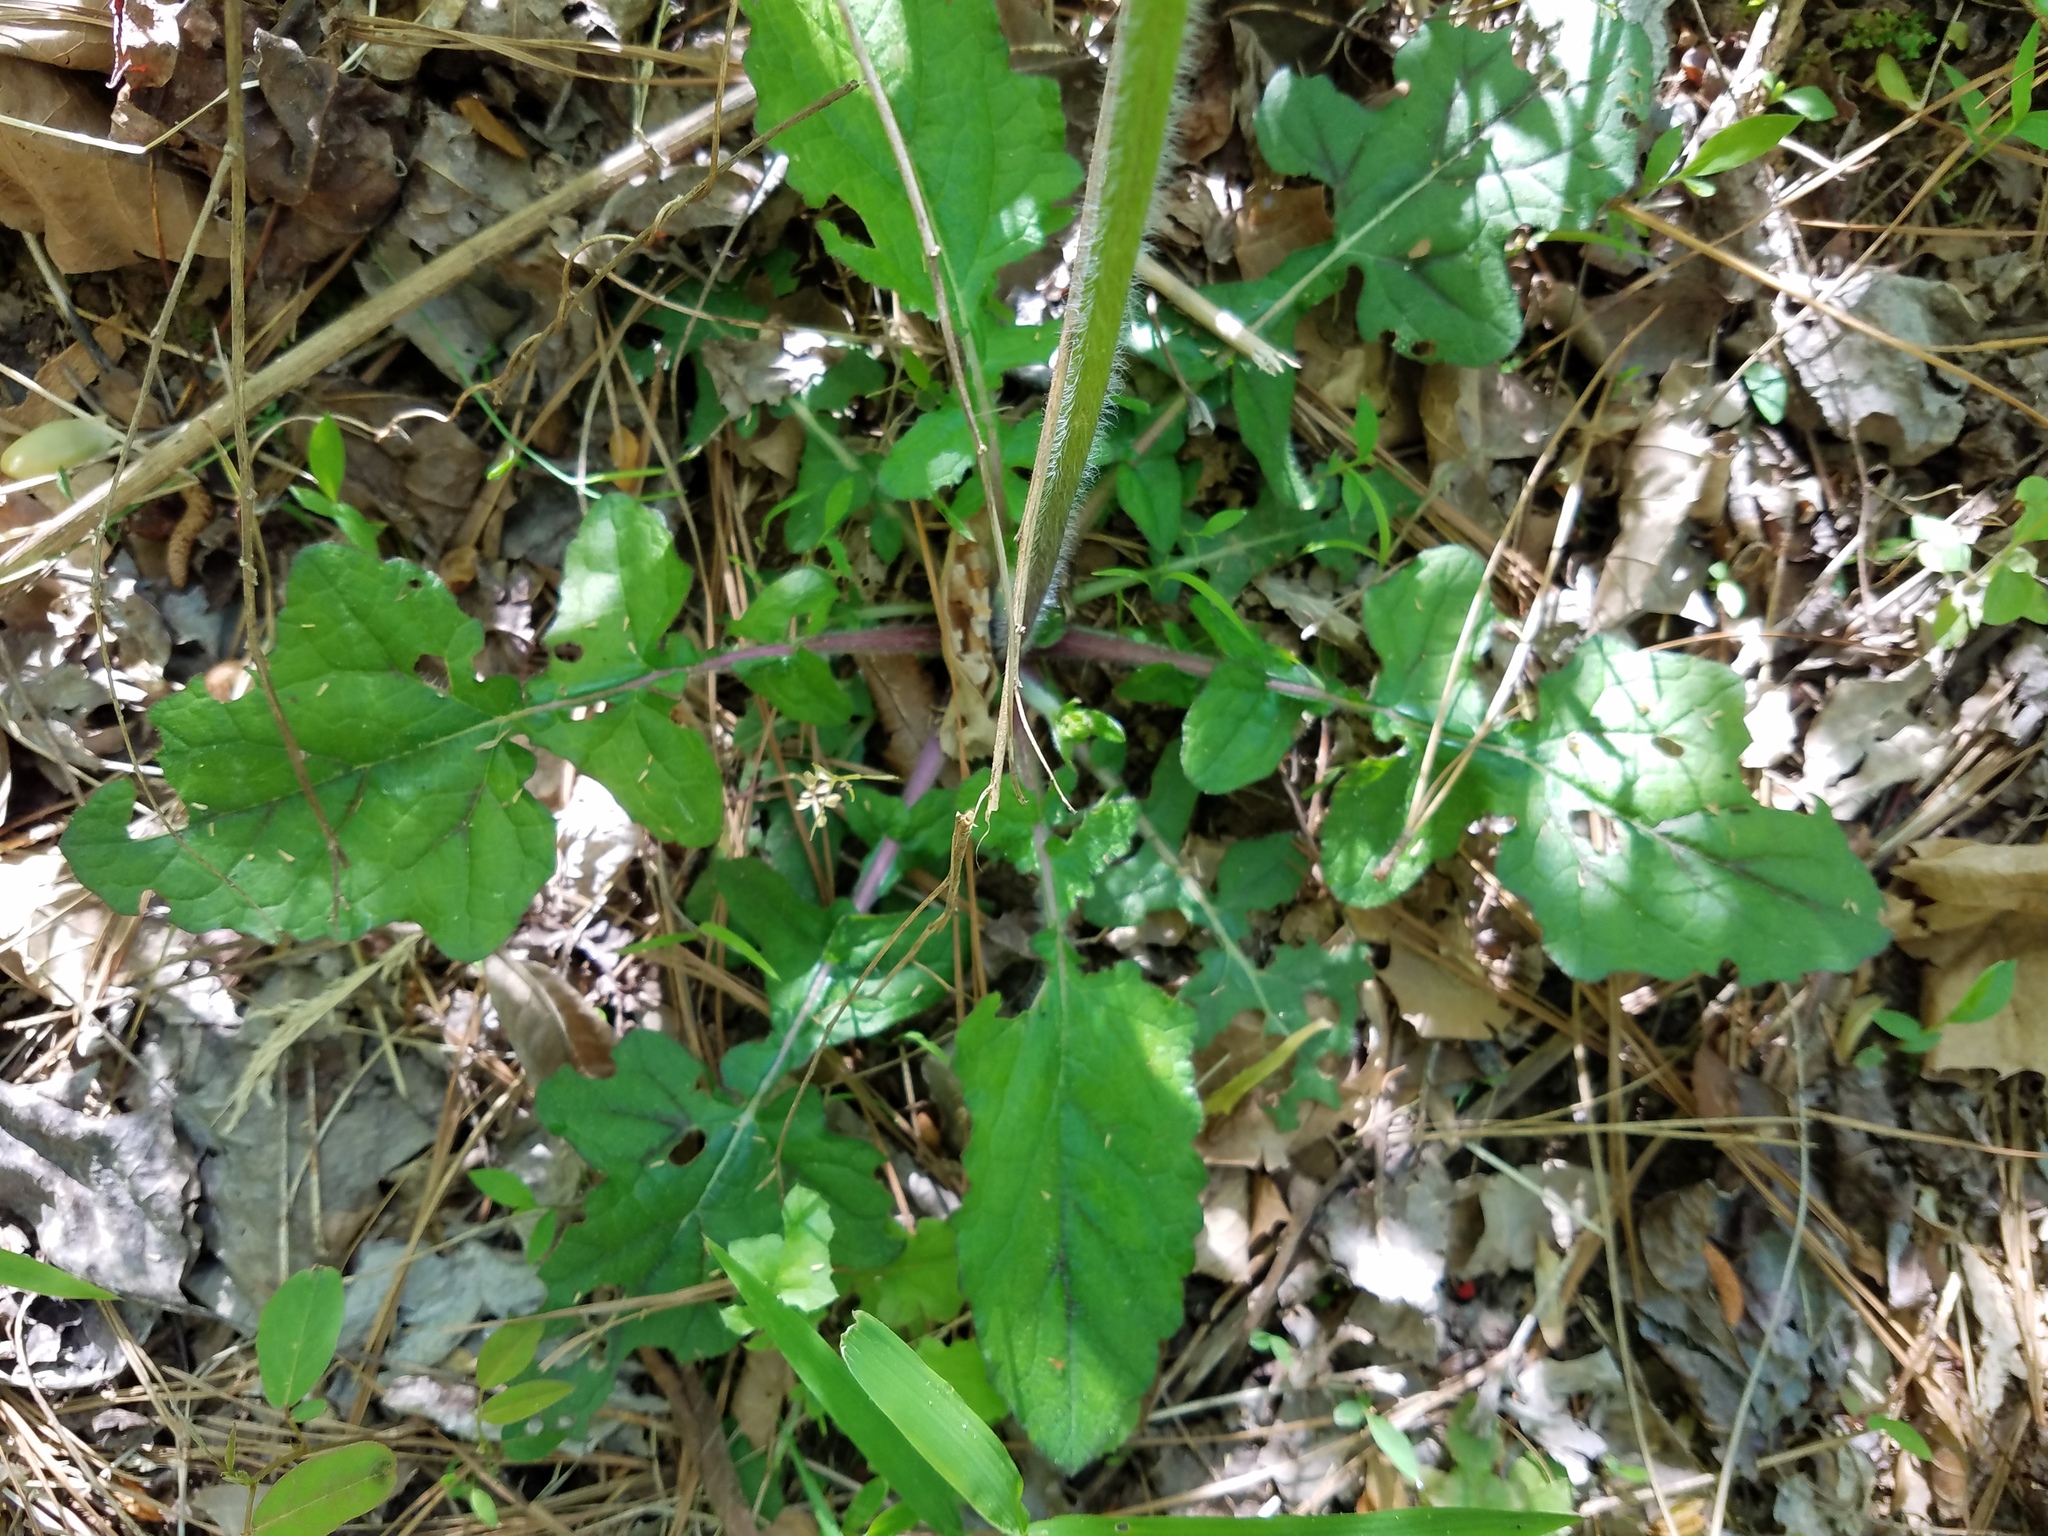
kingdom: Plantae
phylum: Tracheophyta
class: Magnoliopsida
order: Lamiales
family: Lamiaceae
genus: Salvia
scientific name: Salvia lyrata
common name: Cancerweed
